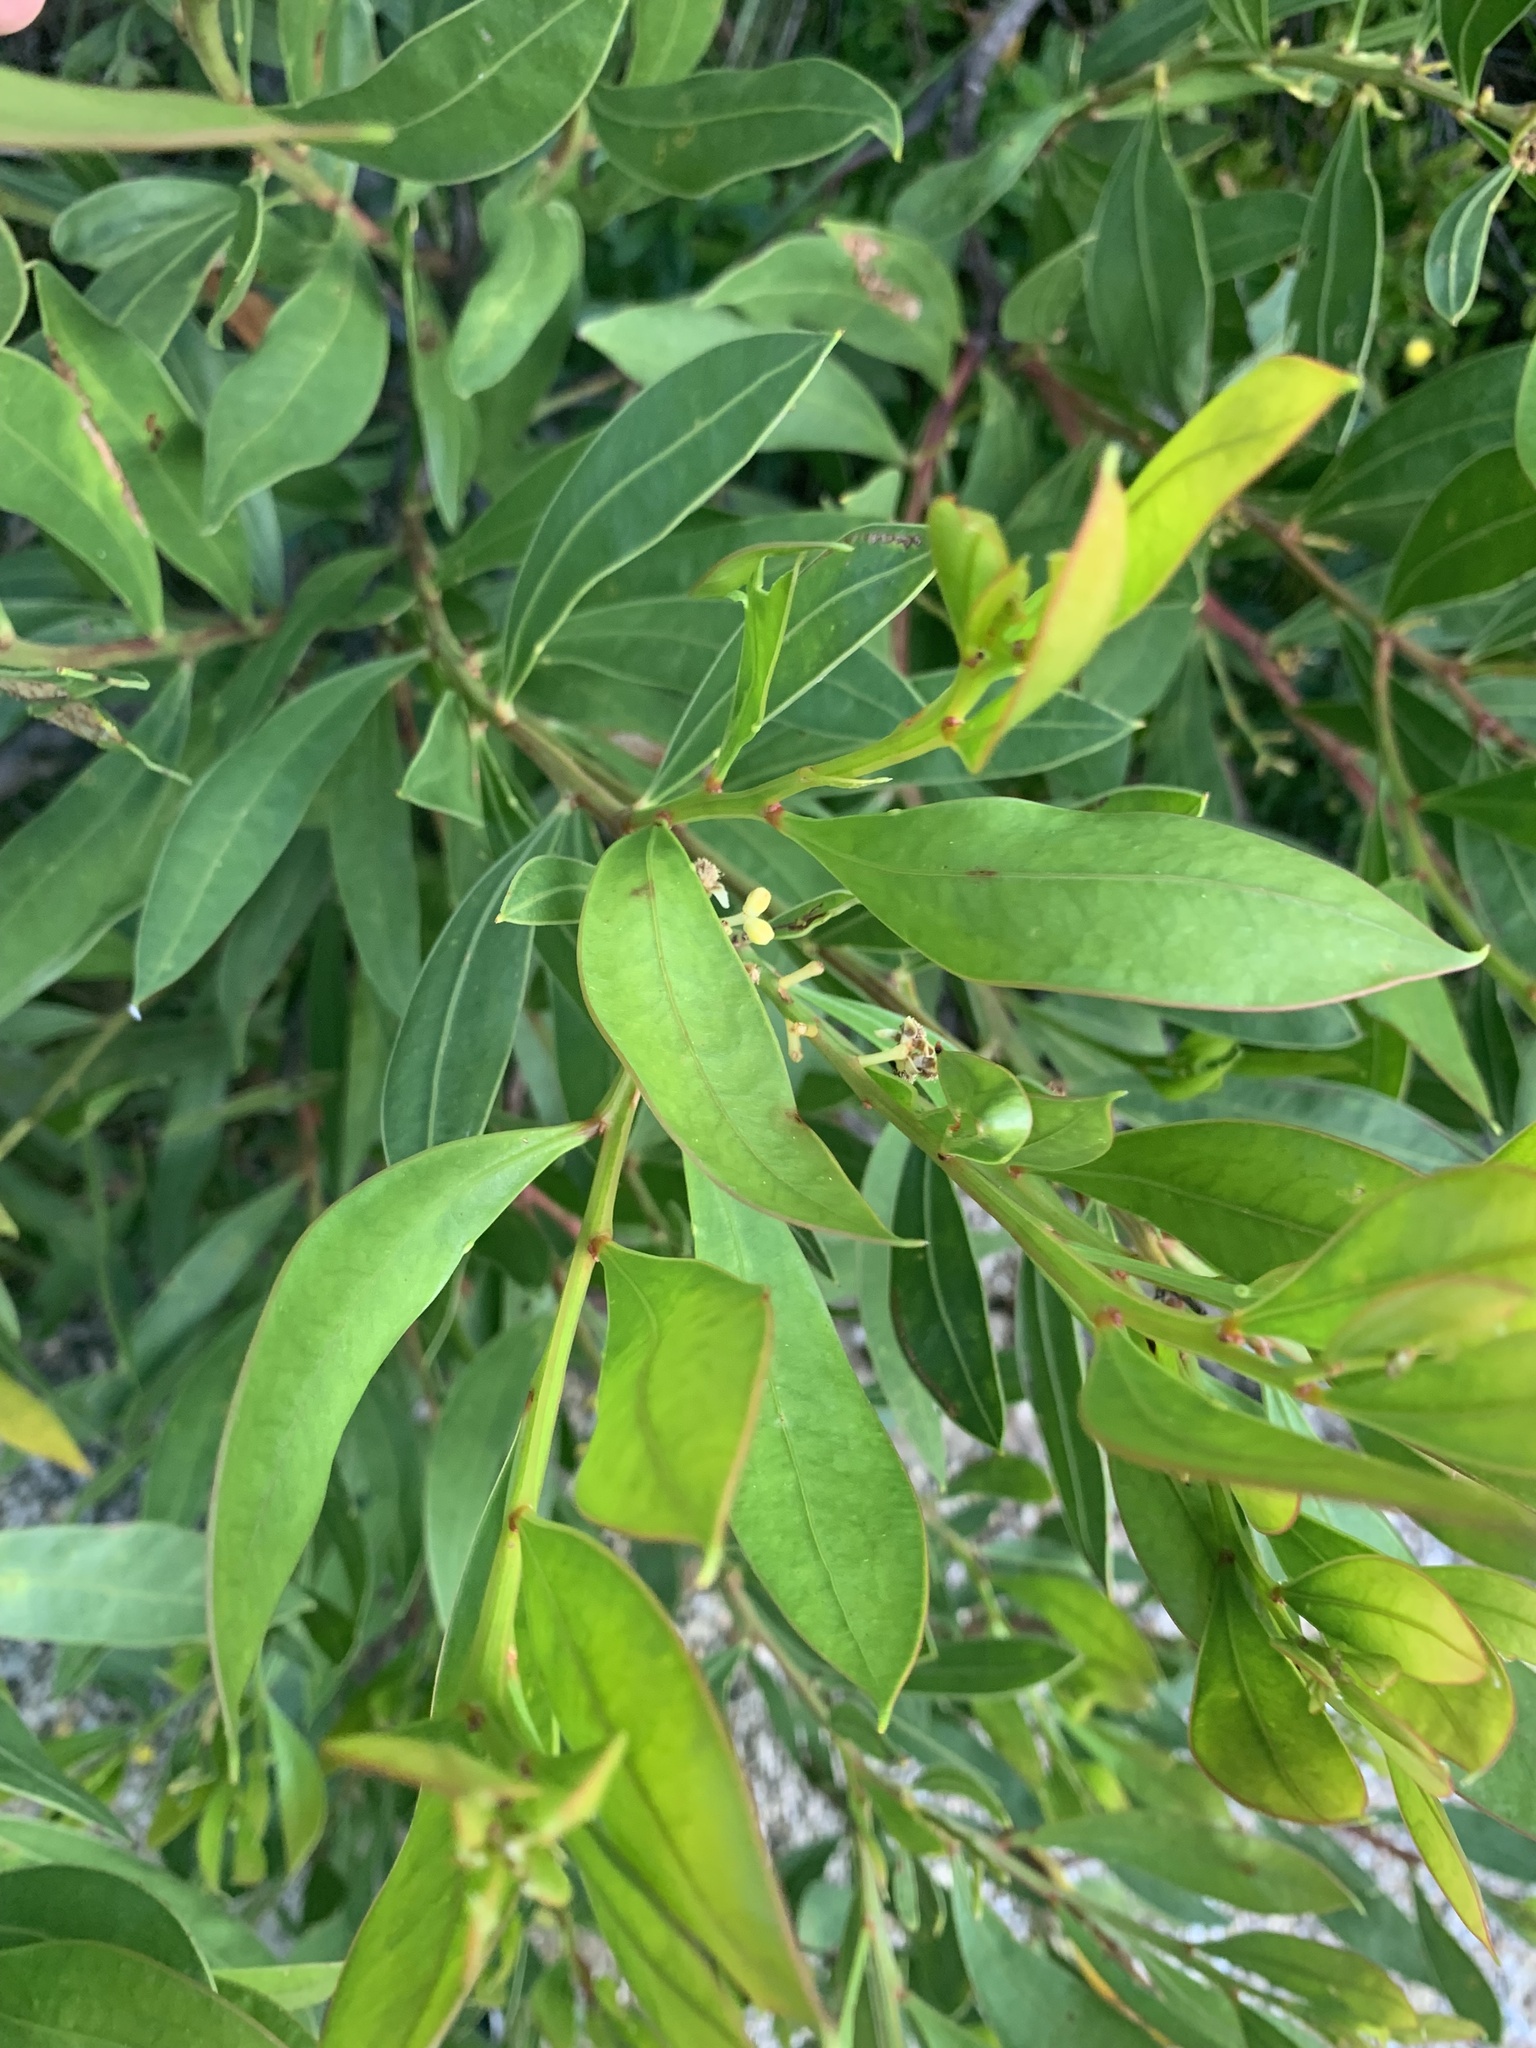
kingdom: Plantae
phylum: Tracheophyta
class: Magnoliopsida
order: Fabales
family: Fabaceae
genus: Acacia
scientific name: Acacia myrtifolia
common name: Myrtle wattle
